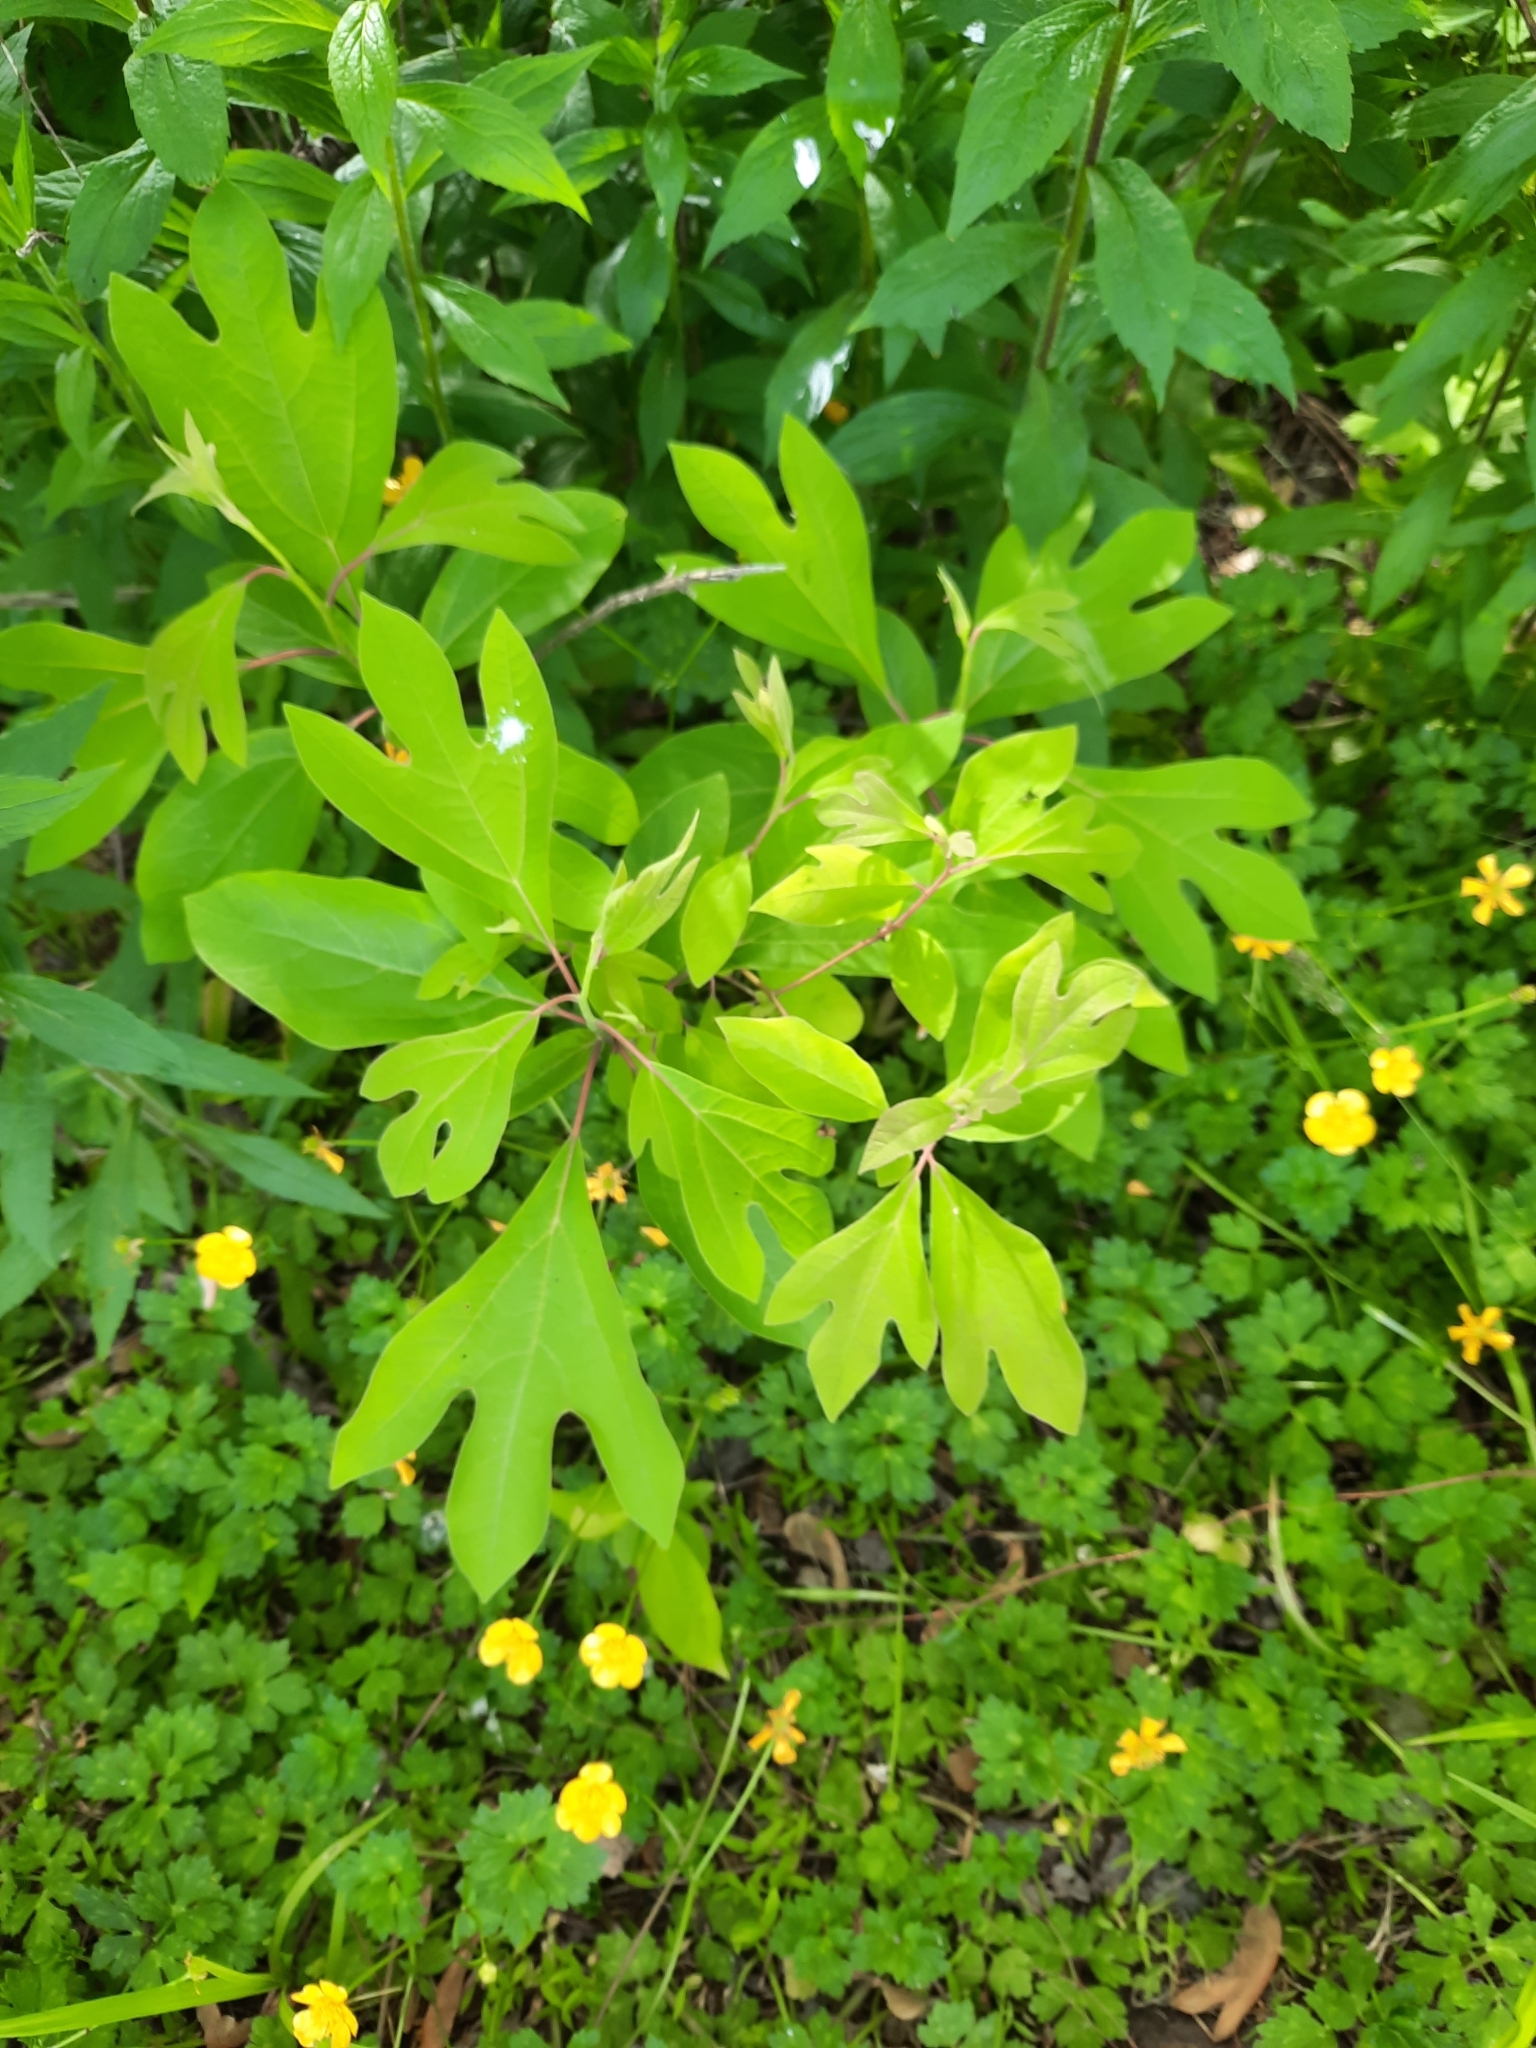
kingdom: Plantae
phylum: Tracheophyta
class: Magnoliopsida
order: Laurales
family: Lauraceae
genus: Sassafras
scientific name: Sassafras albidum
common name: Sassafras
